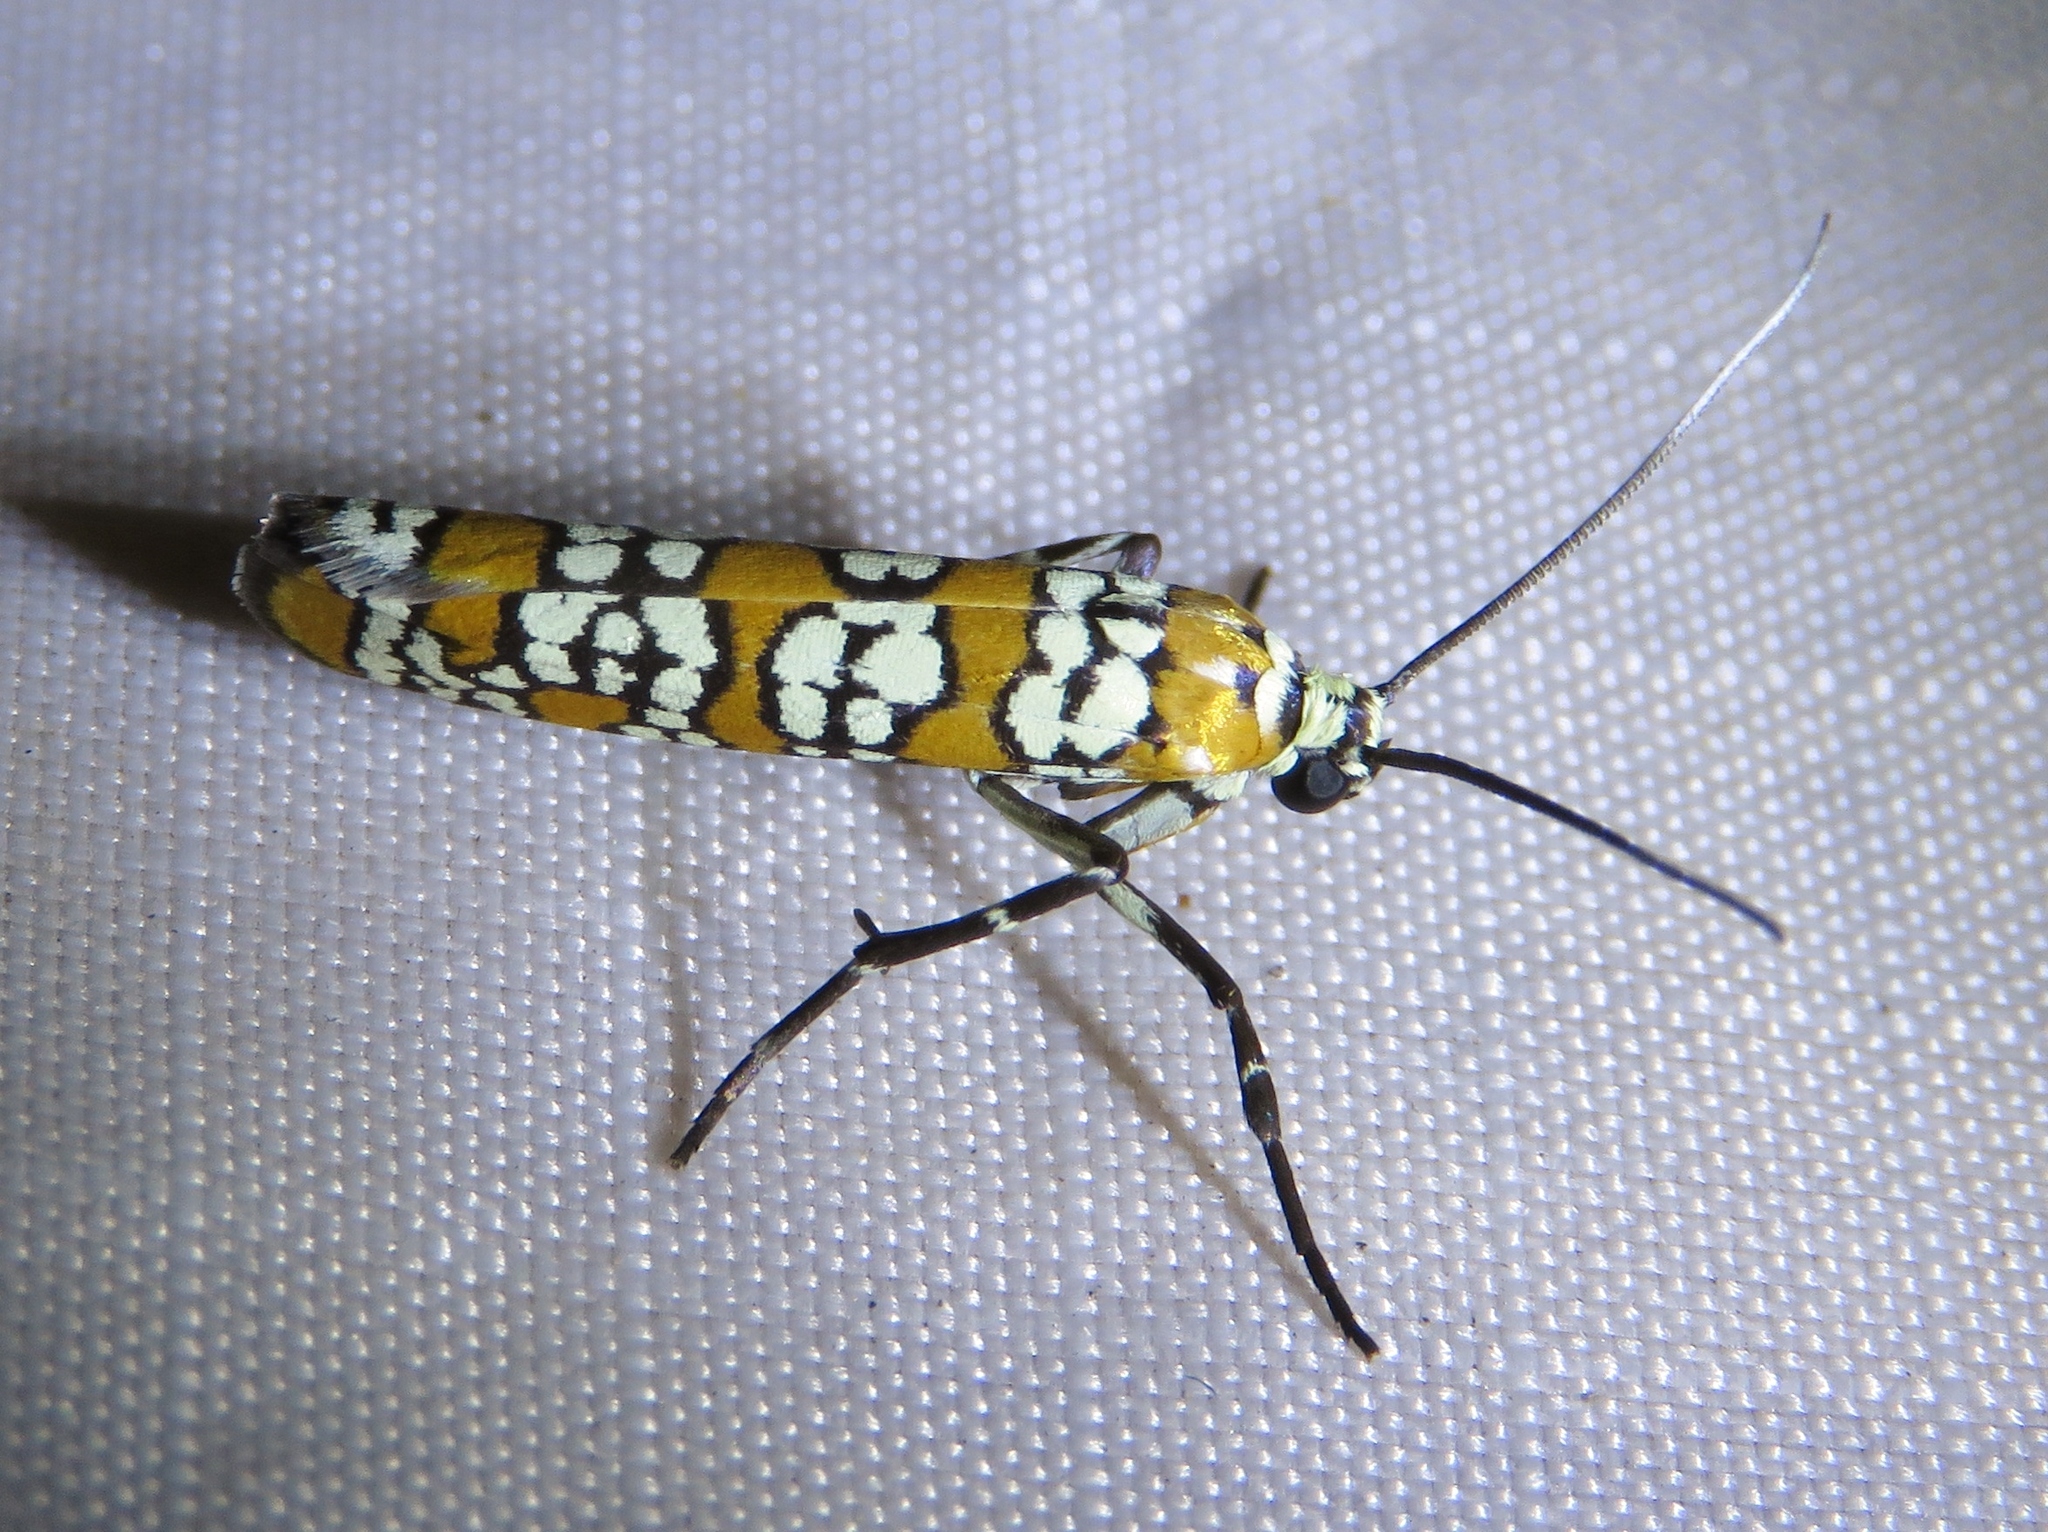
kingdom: Animalia
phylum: Arthropoda
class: Insecta
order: Lepidoptera
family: Attevidae
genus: Atteva
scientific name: Atteva punctella
